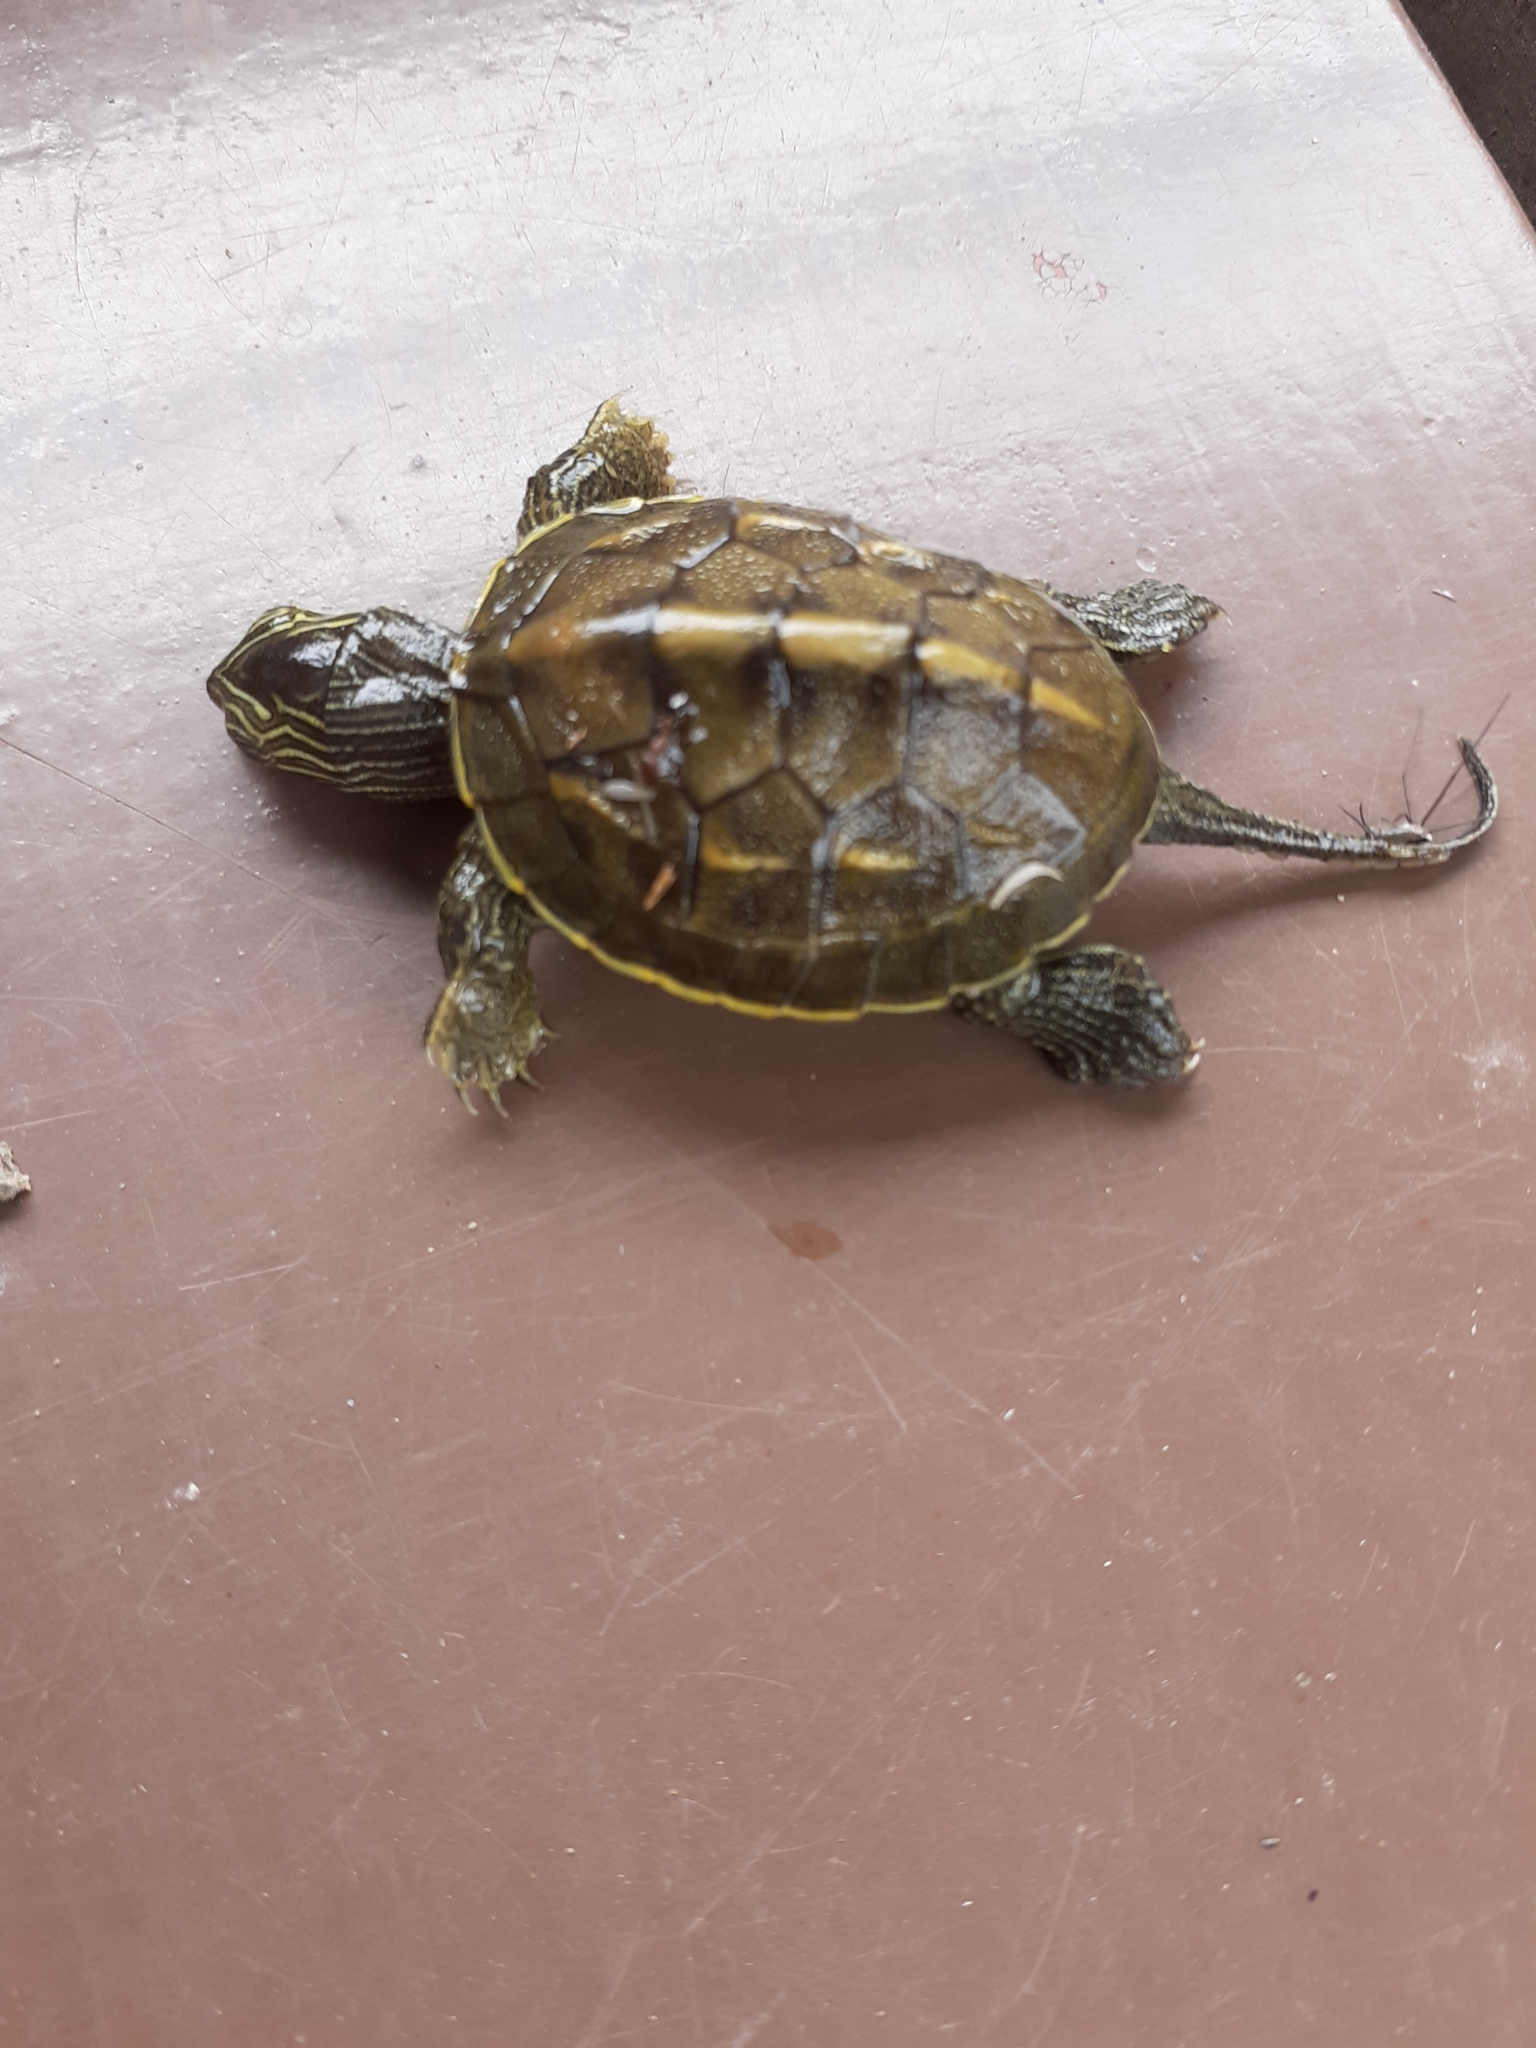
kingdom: Animalia
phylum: Chordata
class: Testudines
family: Geoemydidae
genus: Mauremys
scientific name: Mauremys sinensis
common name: Chinese stripe-necked turtle
